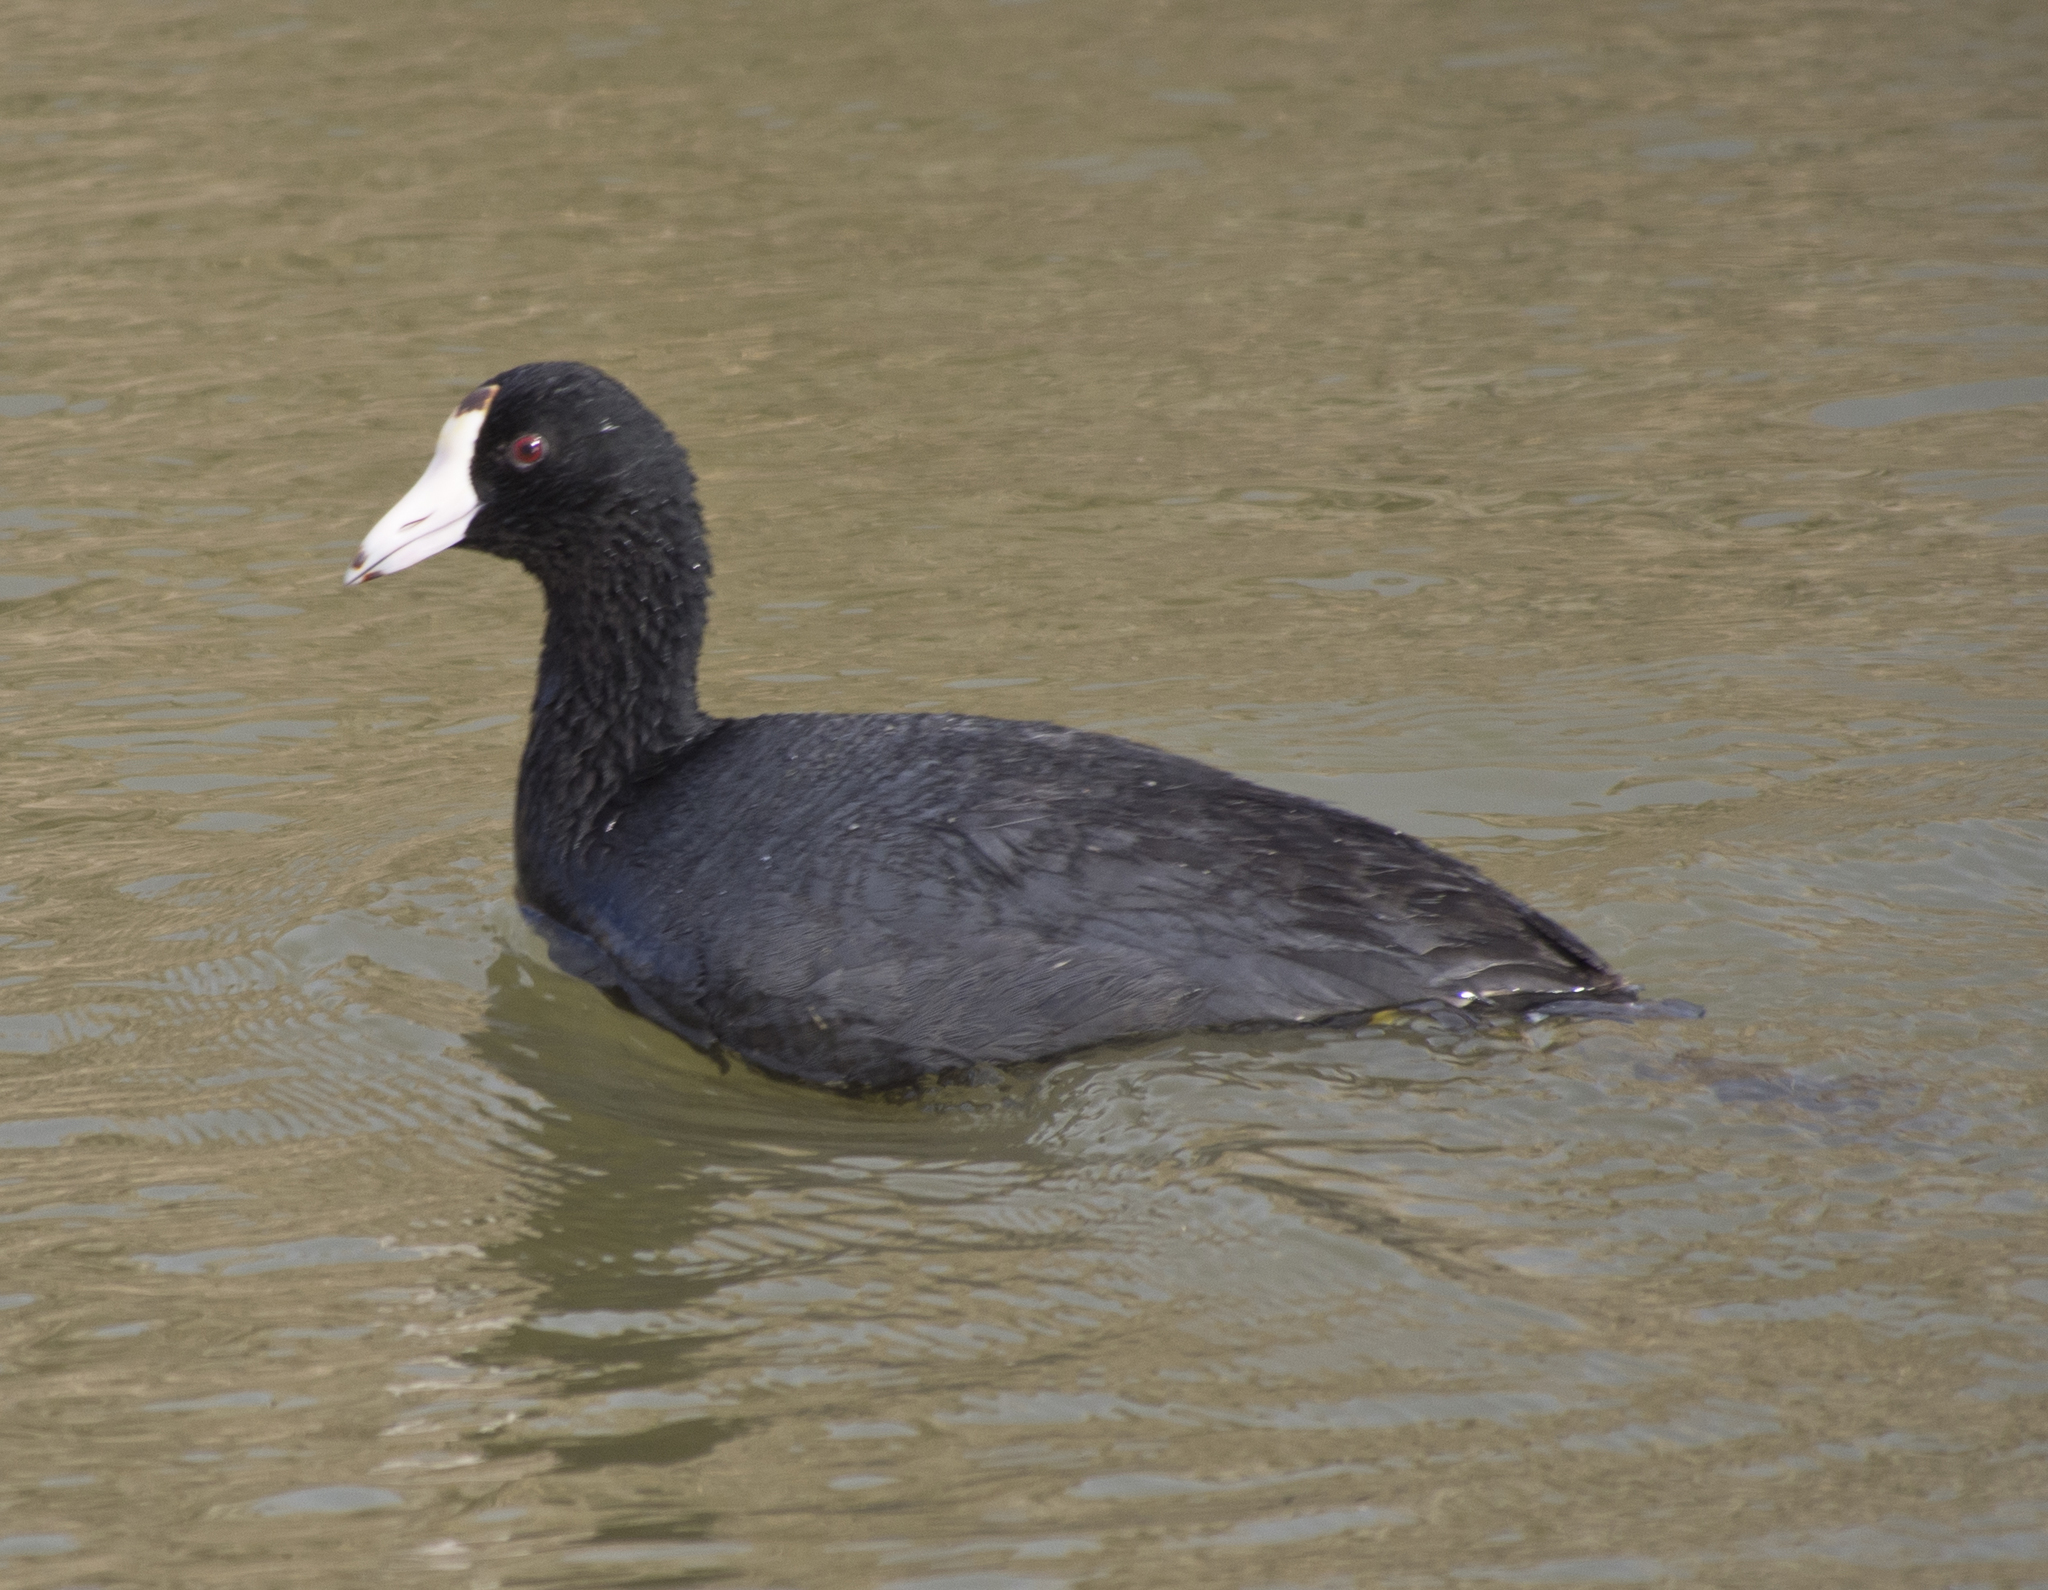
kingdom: Animalia
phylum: Chordata
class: Aves
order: Gruiformes
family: Rallidae
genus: Fulica
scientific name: Fulica americana
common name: American coot
